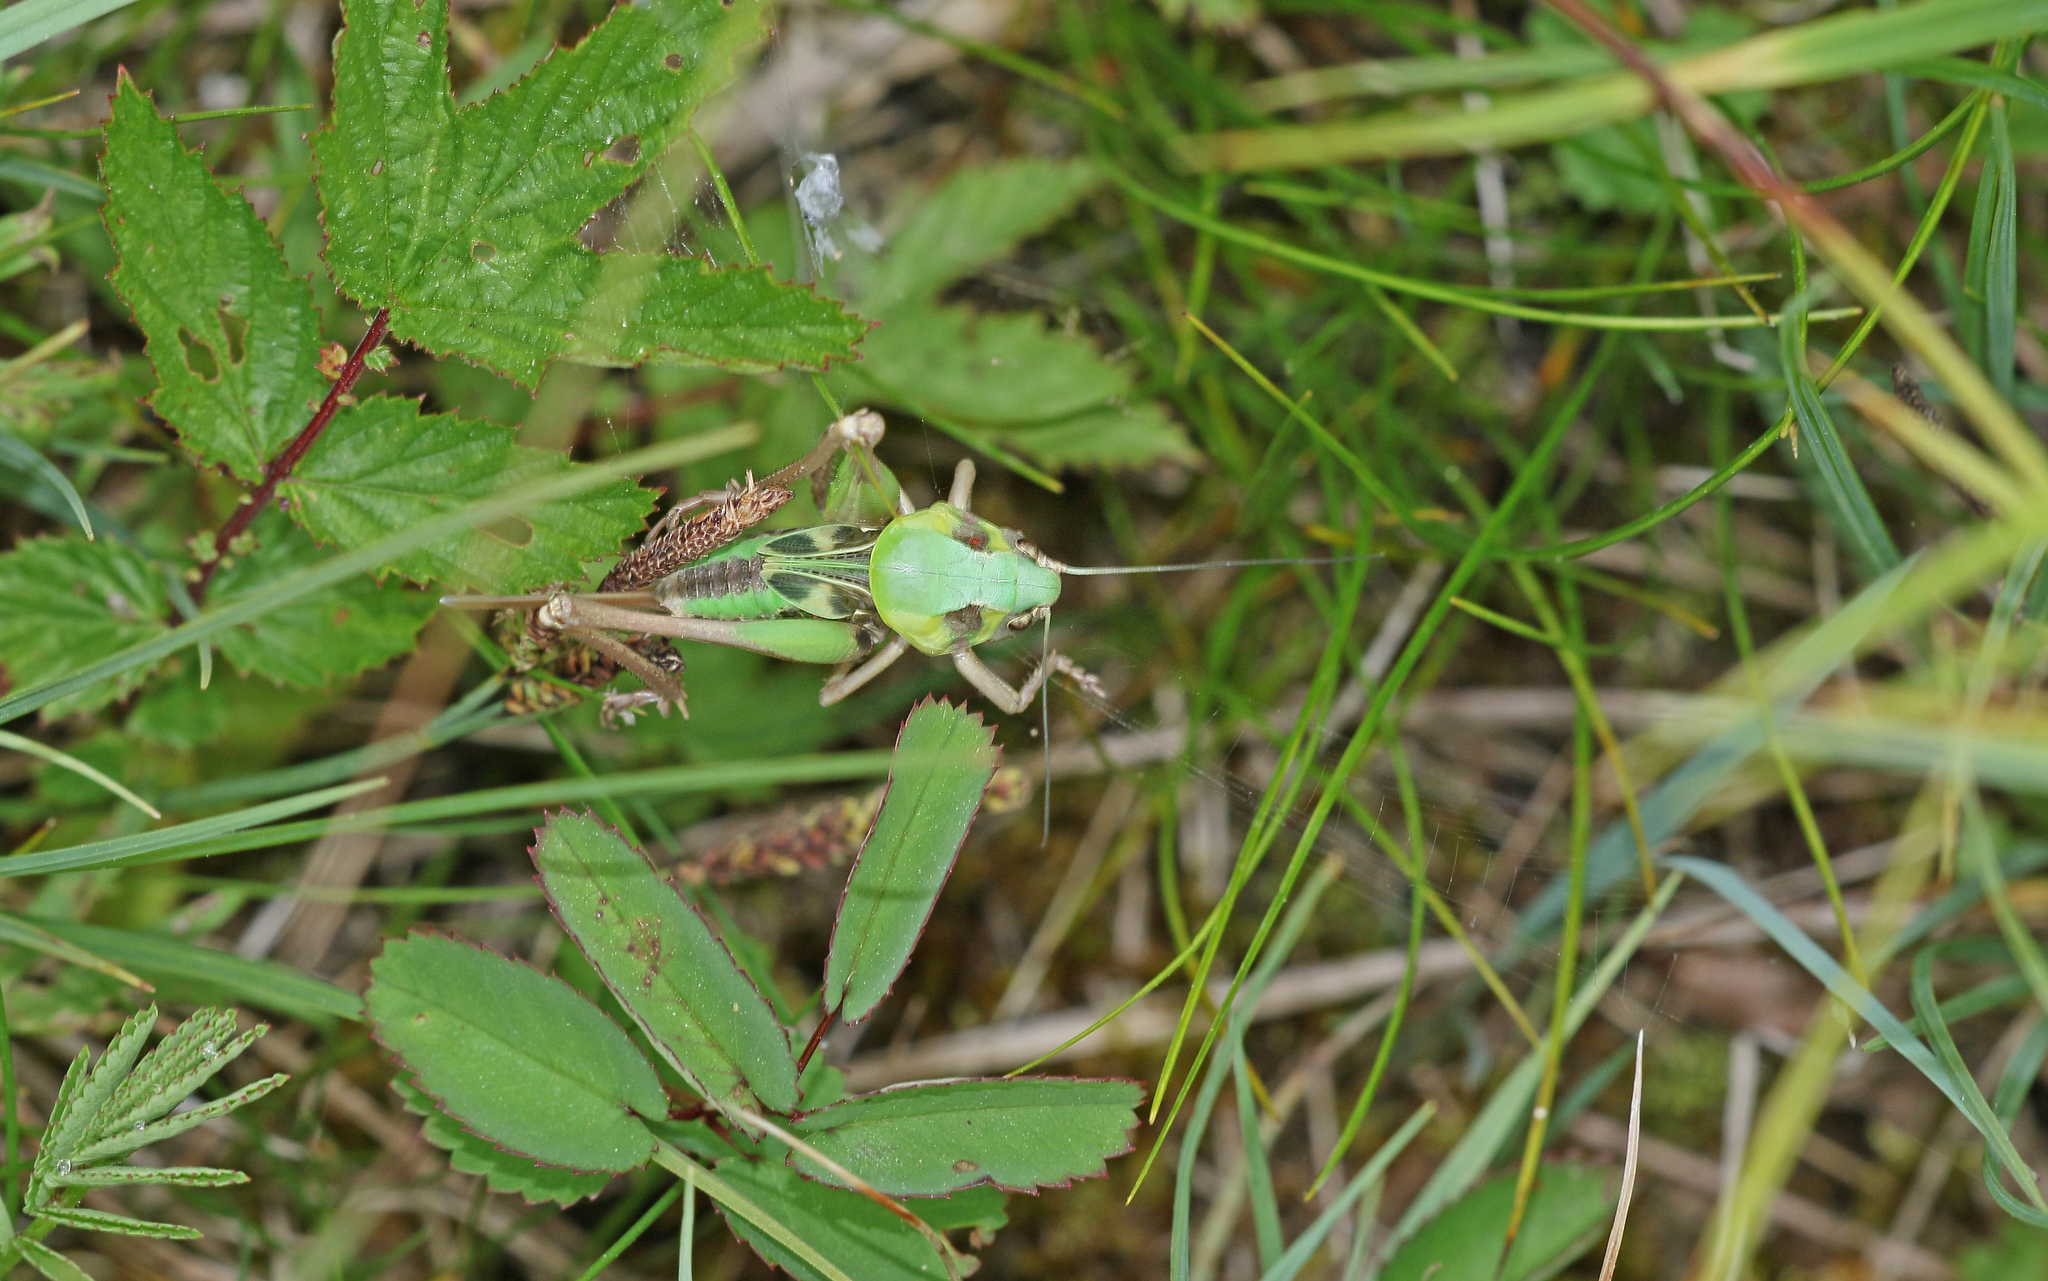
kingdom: Animalia
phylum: Arthropoda
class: Insecta
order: Orthoptera
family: Tettigoniidae
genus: Decticus
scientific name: Decticus verrucivorus
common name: Wart-biter
